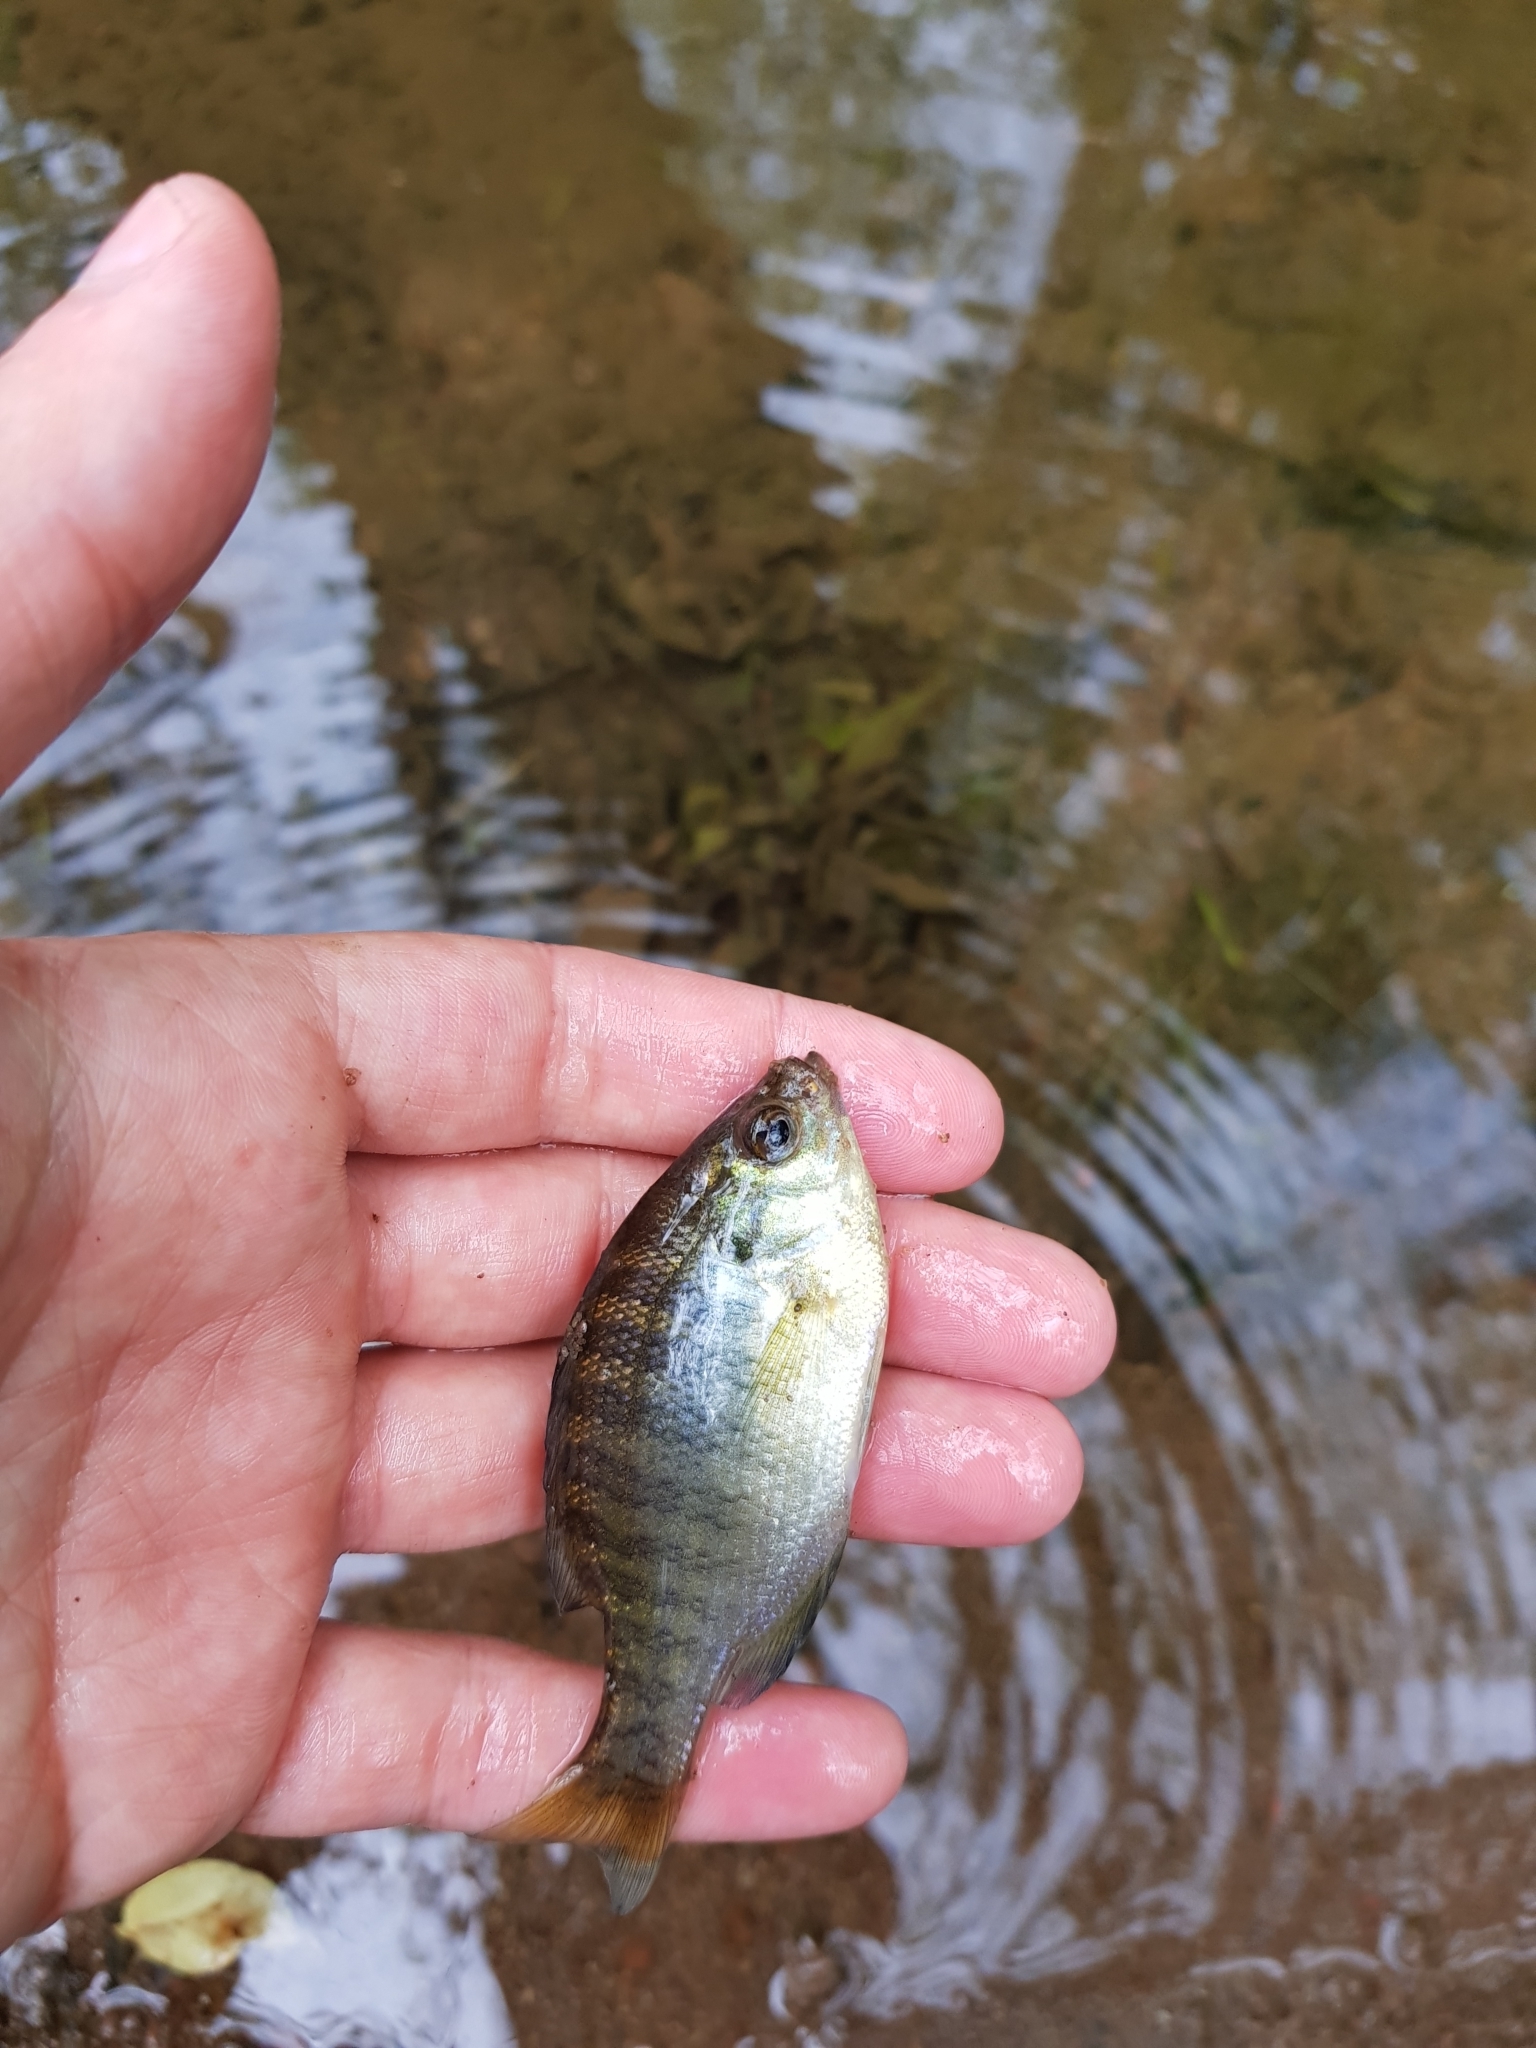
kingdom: Animalia
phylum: Chordata
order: Perciformes
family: Centrarchidae
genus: Lepomis
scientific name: Lepomis macrochirus
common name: Bluegill
